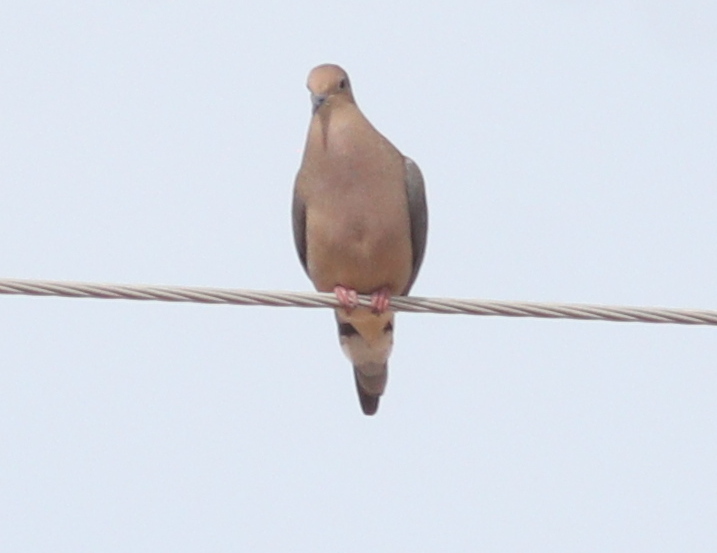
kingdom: Animalia
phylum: Chordata
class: Aves
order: Columbiformes
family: Columbidae
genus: Zenaida
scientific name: Zenaida macroura
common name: Mourning dove
